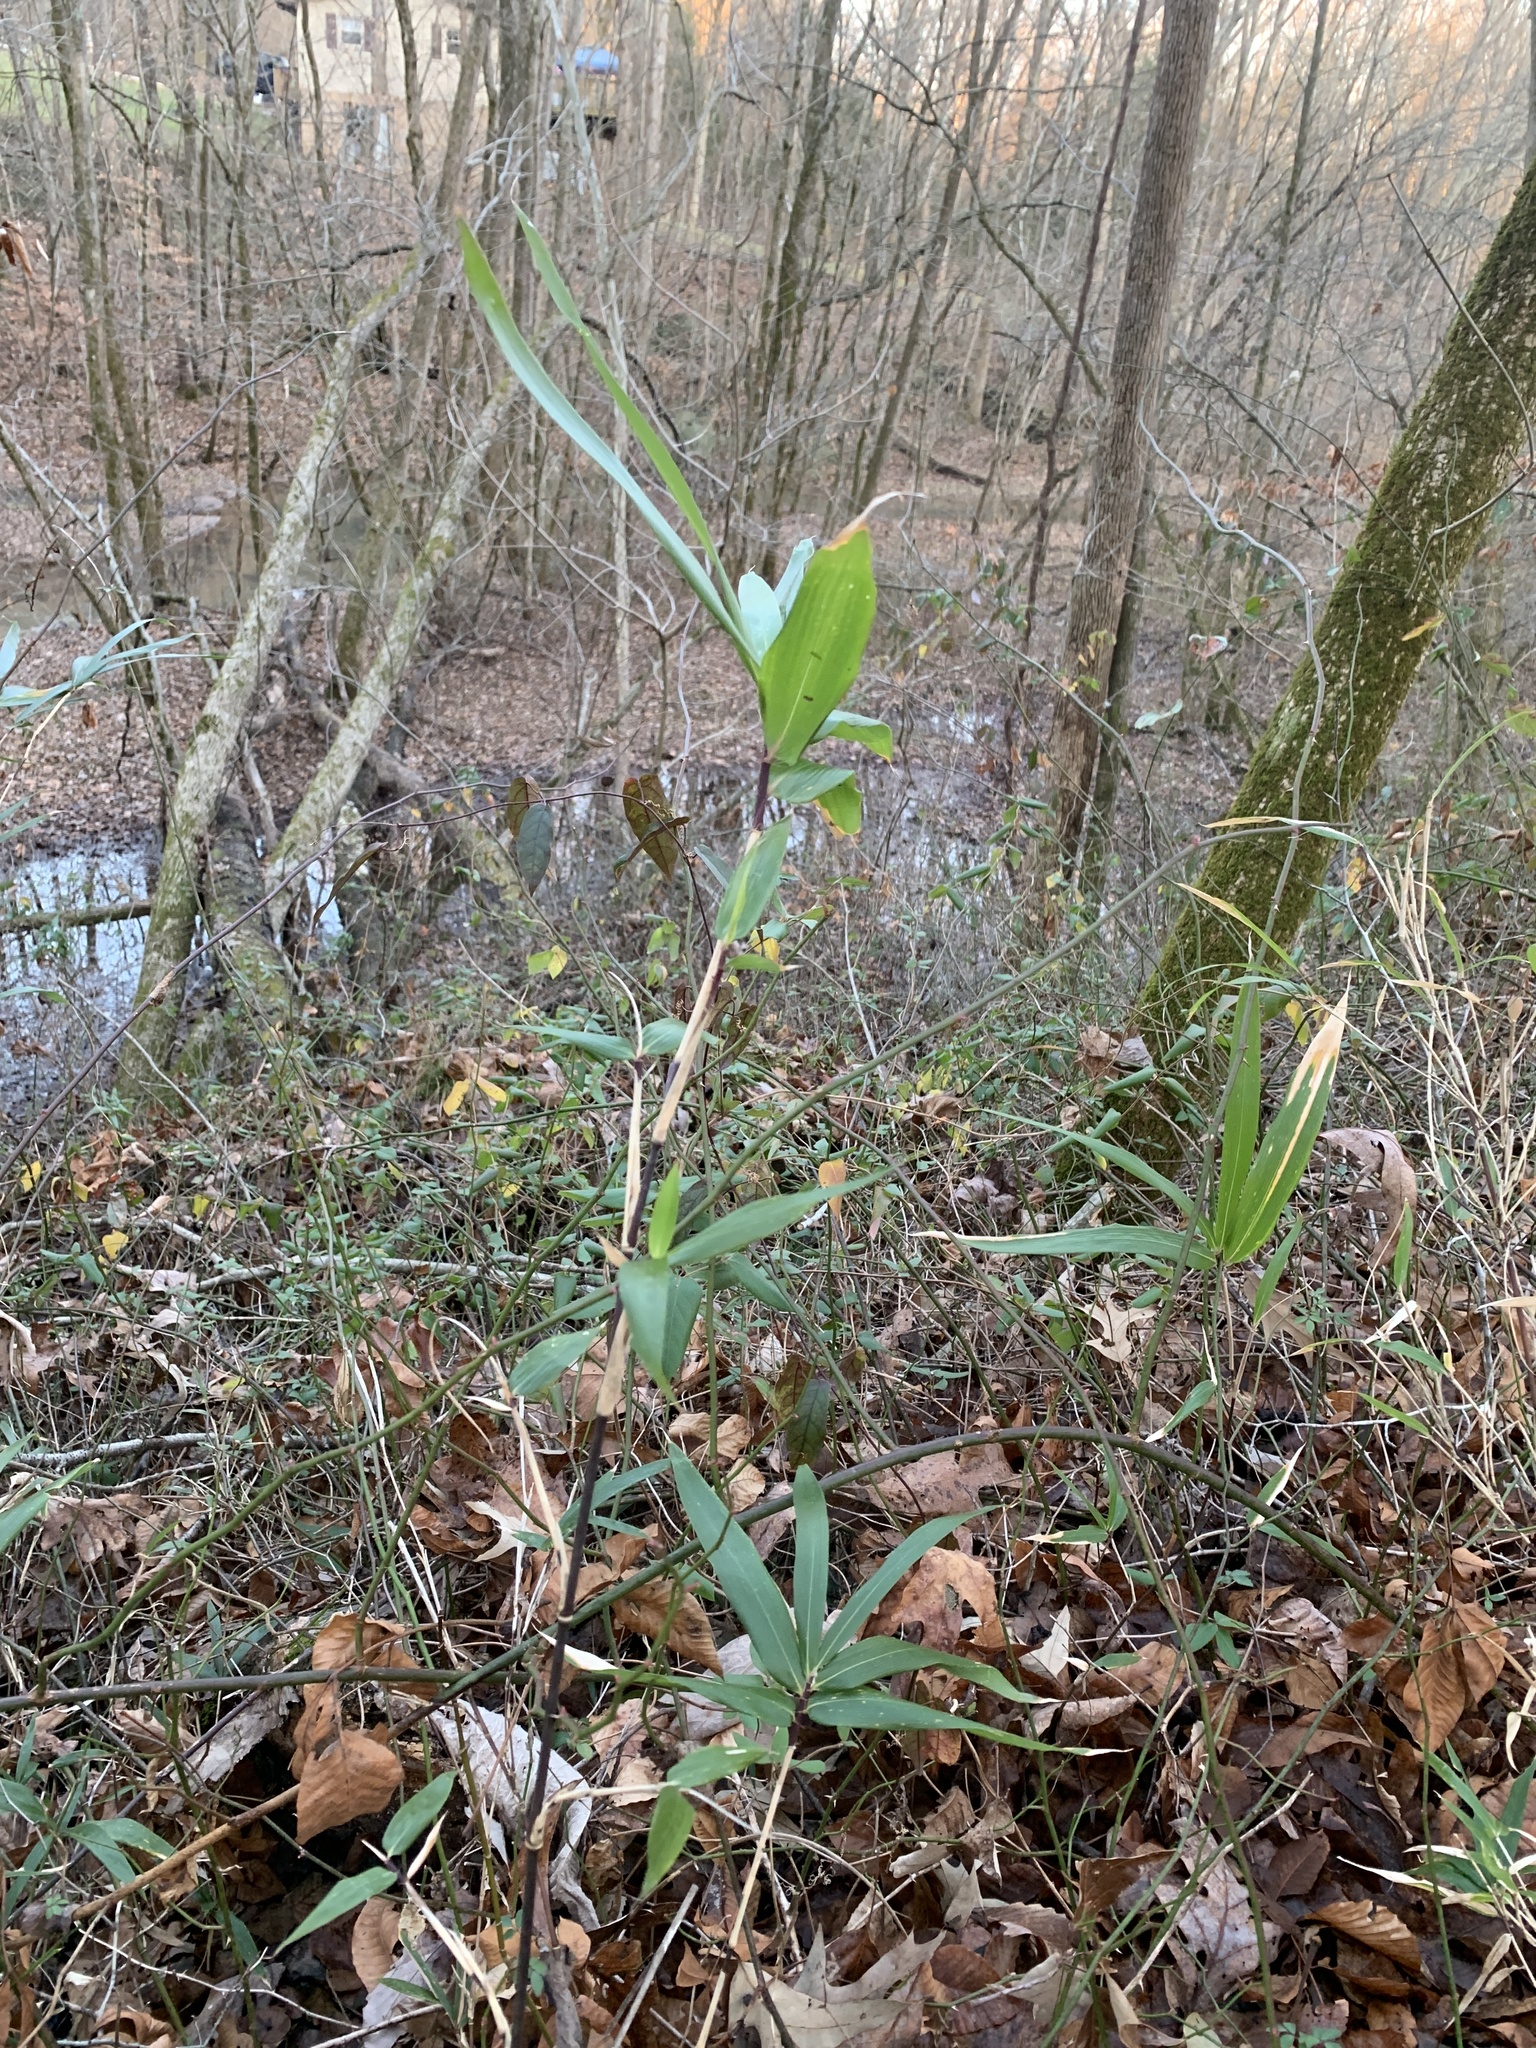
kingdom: Plantae
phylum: Tracheophyta
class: Liliopsida
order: Poales
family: Poaceae
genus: Arundinaria
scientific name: Arundinaria gigantea
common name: Giant cane
